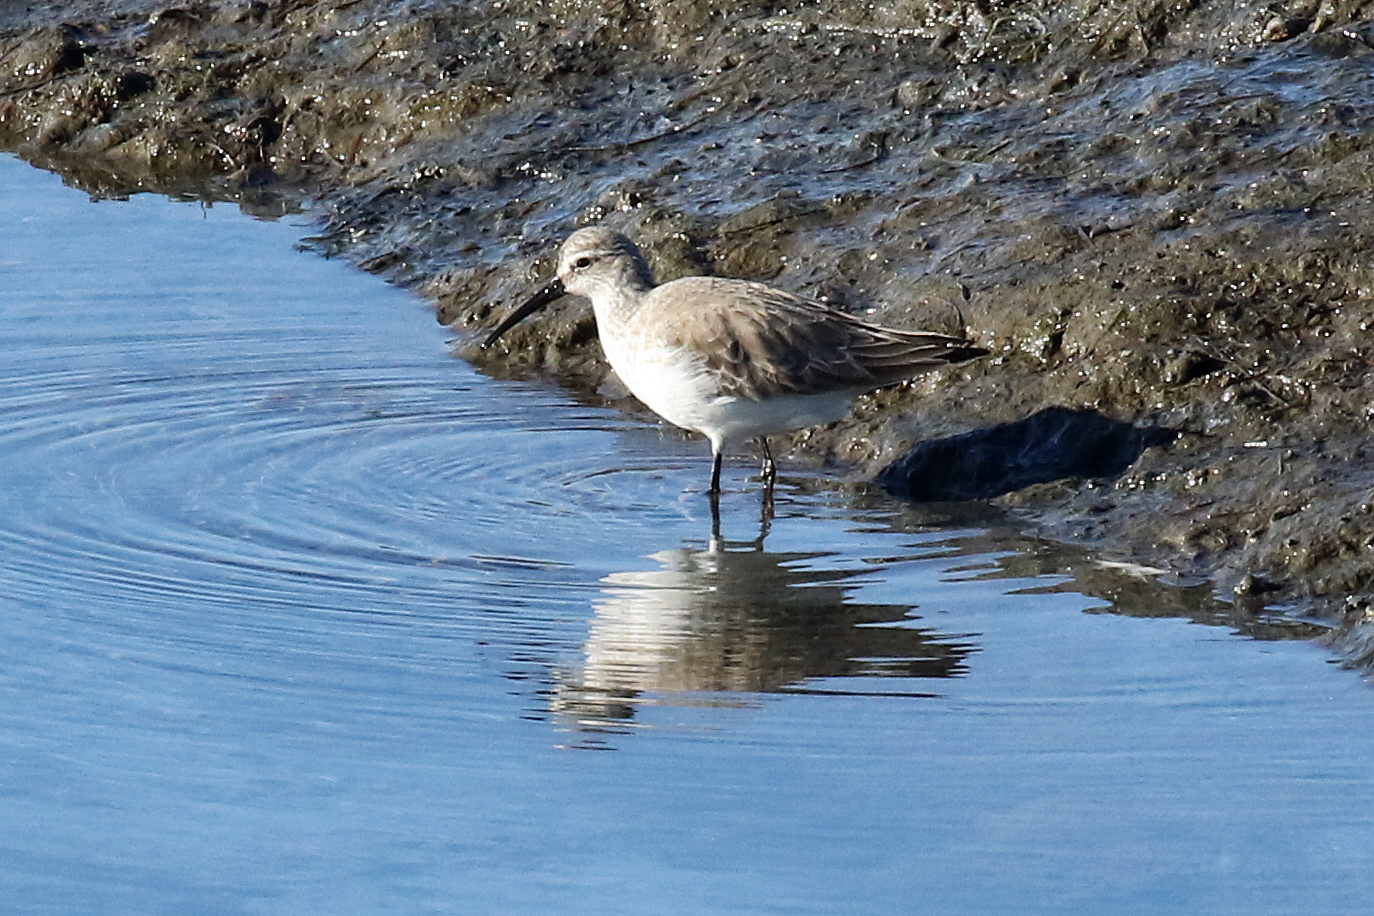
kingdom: Animalia
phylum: Chordata
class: Aves
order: Charadriiformes
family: Scolopacidae
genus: Calidris
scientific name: Calidris ferruginea
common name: Curlew sandpiper
